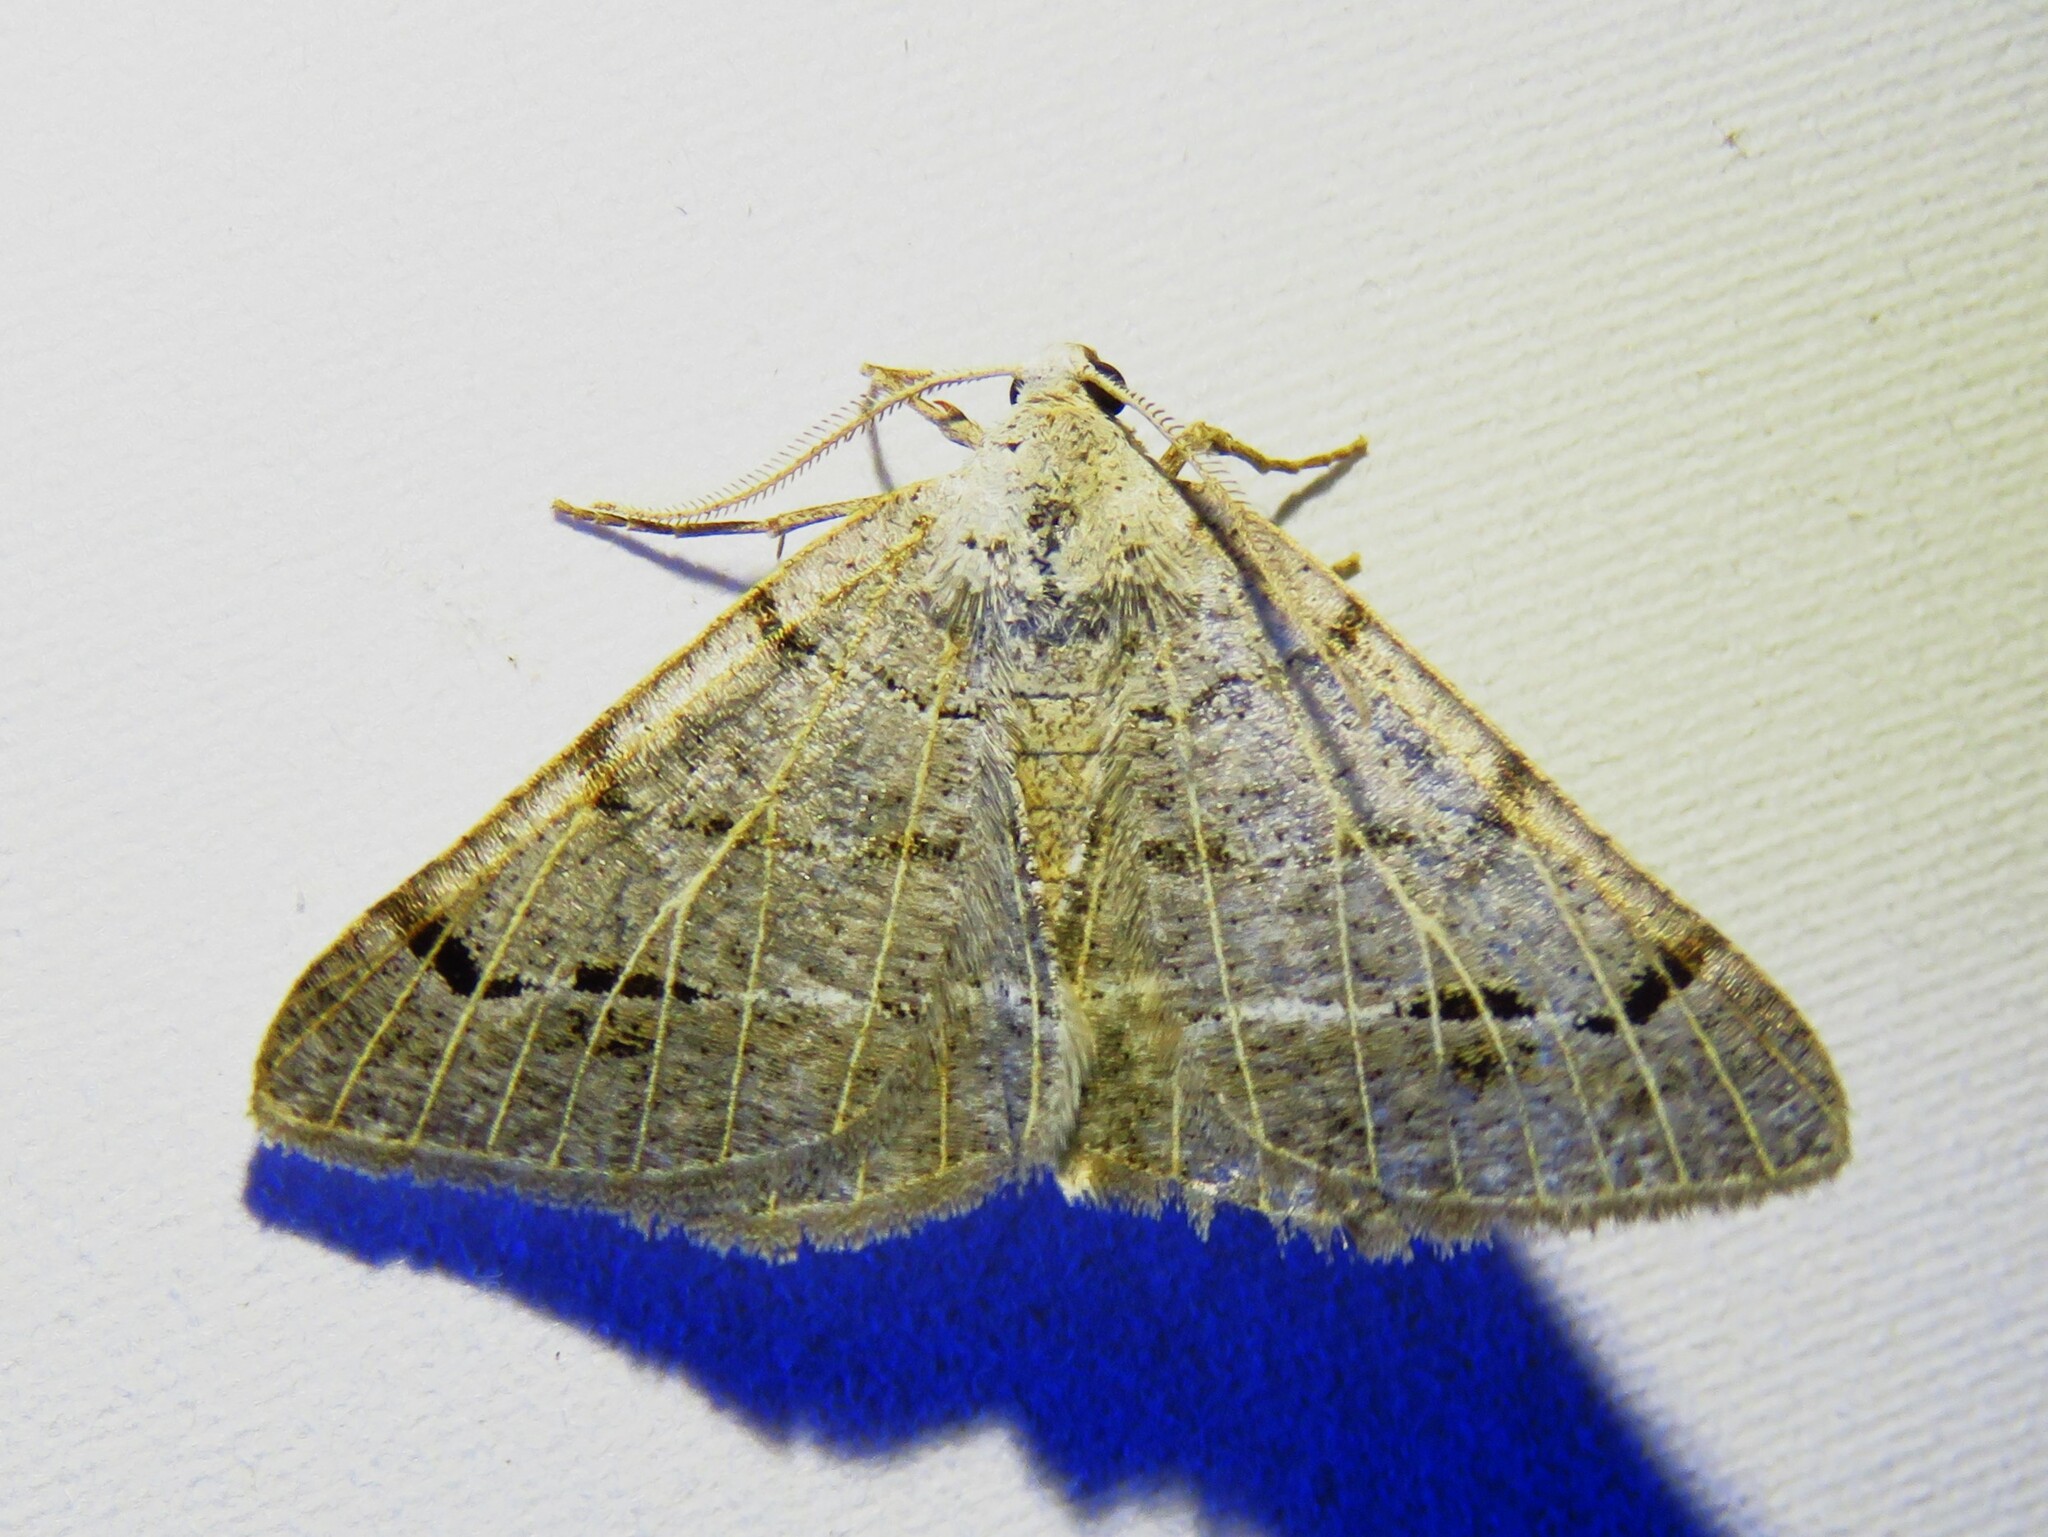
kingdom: Animalia
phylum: Arthropoda
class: Insecta
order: Lepidoptera
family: Geometridae
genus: Isturgia
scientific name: Isturgia dislocaria
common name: Pale-viened enconista
